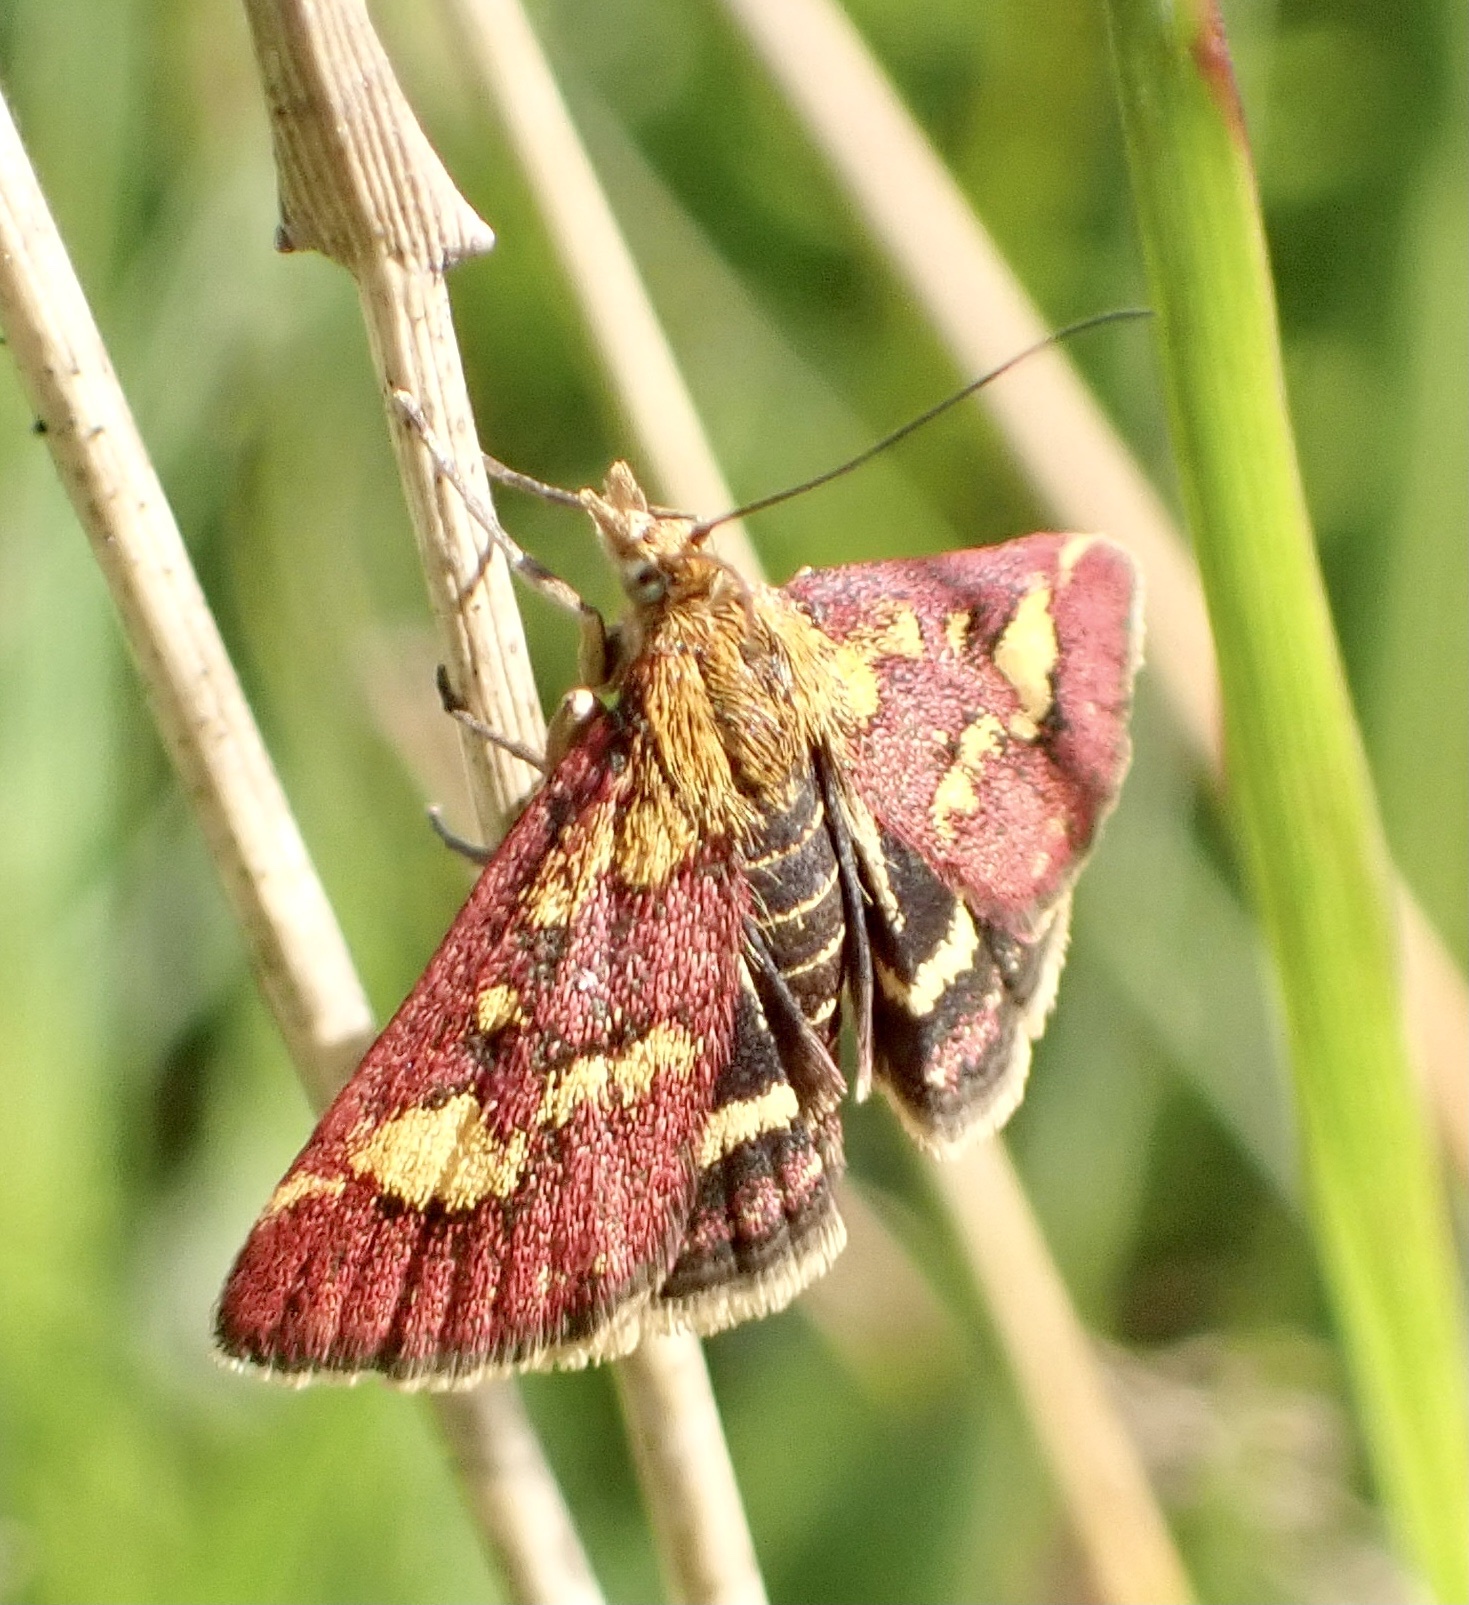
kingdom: Animalia
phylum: Arthropoda
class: Insecta
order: Lepidoptera
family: Crambidae
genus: Pyrausta
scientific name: Pyrausta purpuralis
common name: Common purple & gold
